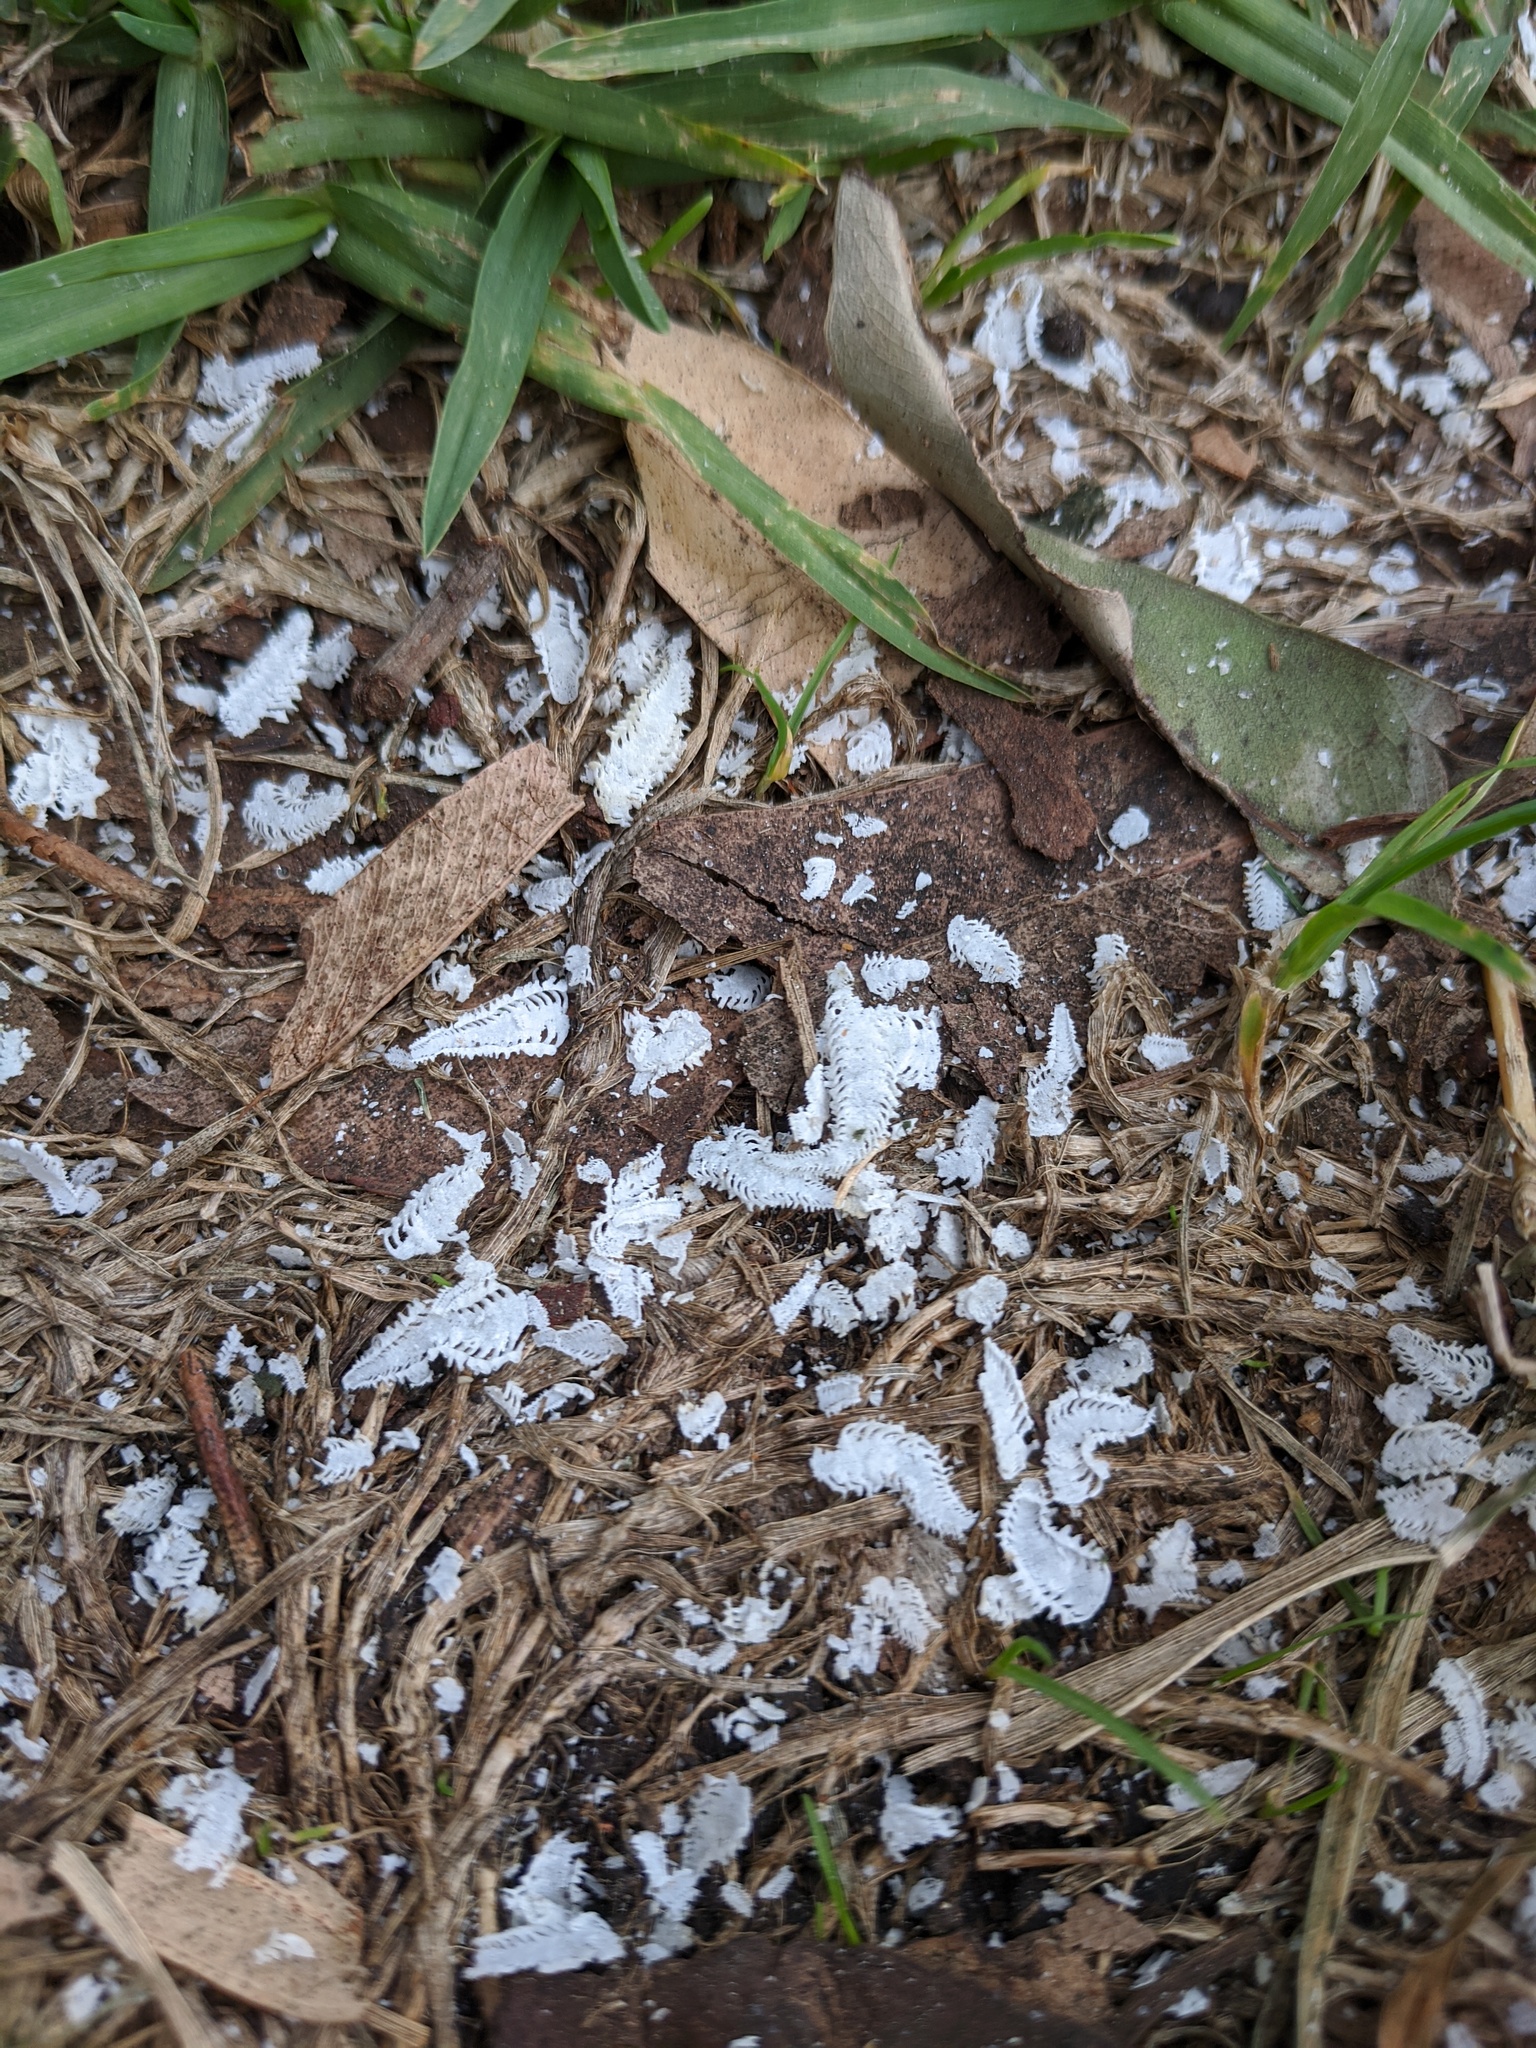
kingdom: Animalia
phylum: Arthropoda
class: Insecta
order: Hemiptera
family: Aphalaridae
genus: Eucalyptolyma
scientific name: Eucalyptolyma maideni
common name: Spotted gum lerp psyllid
